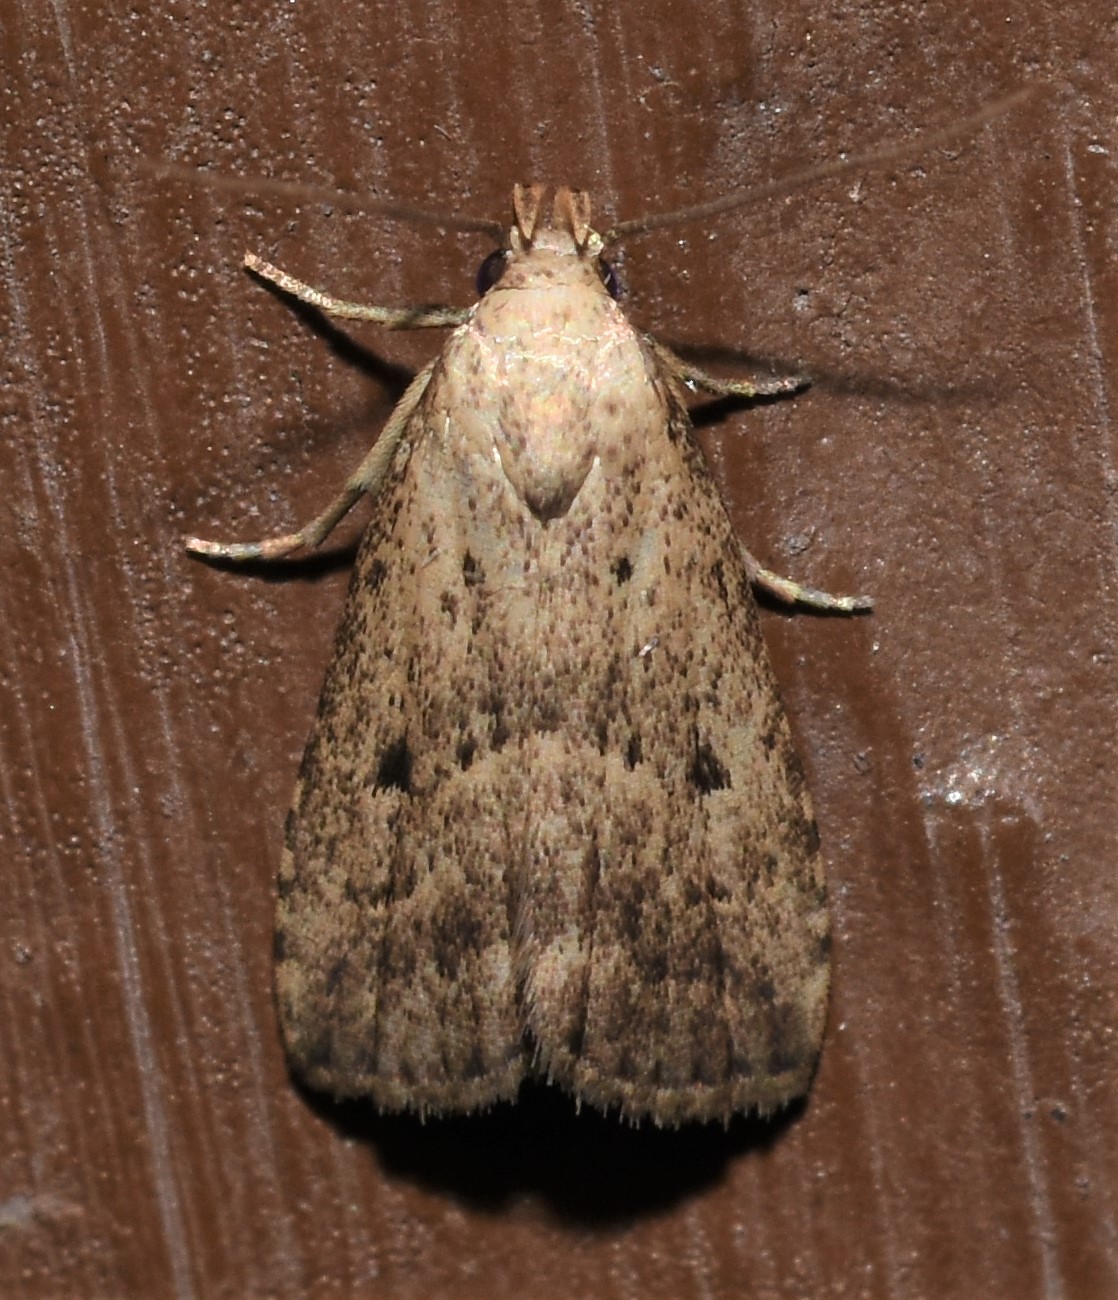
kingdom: Animalia
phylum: Arthropoda
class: Insecta
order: Lepidoptera
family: Erebidae
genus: Hypenodes
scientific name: Hypenodes fractilinea
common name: Broken-line hypenodes moth
